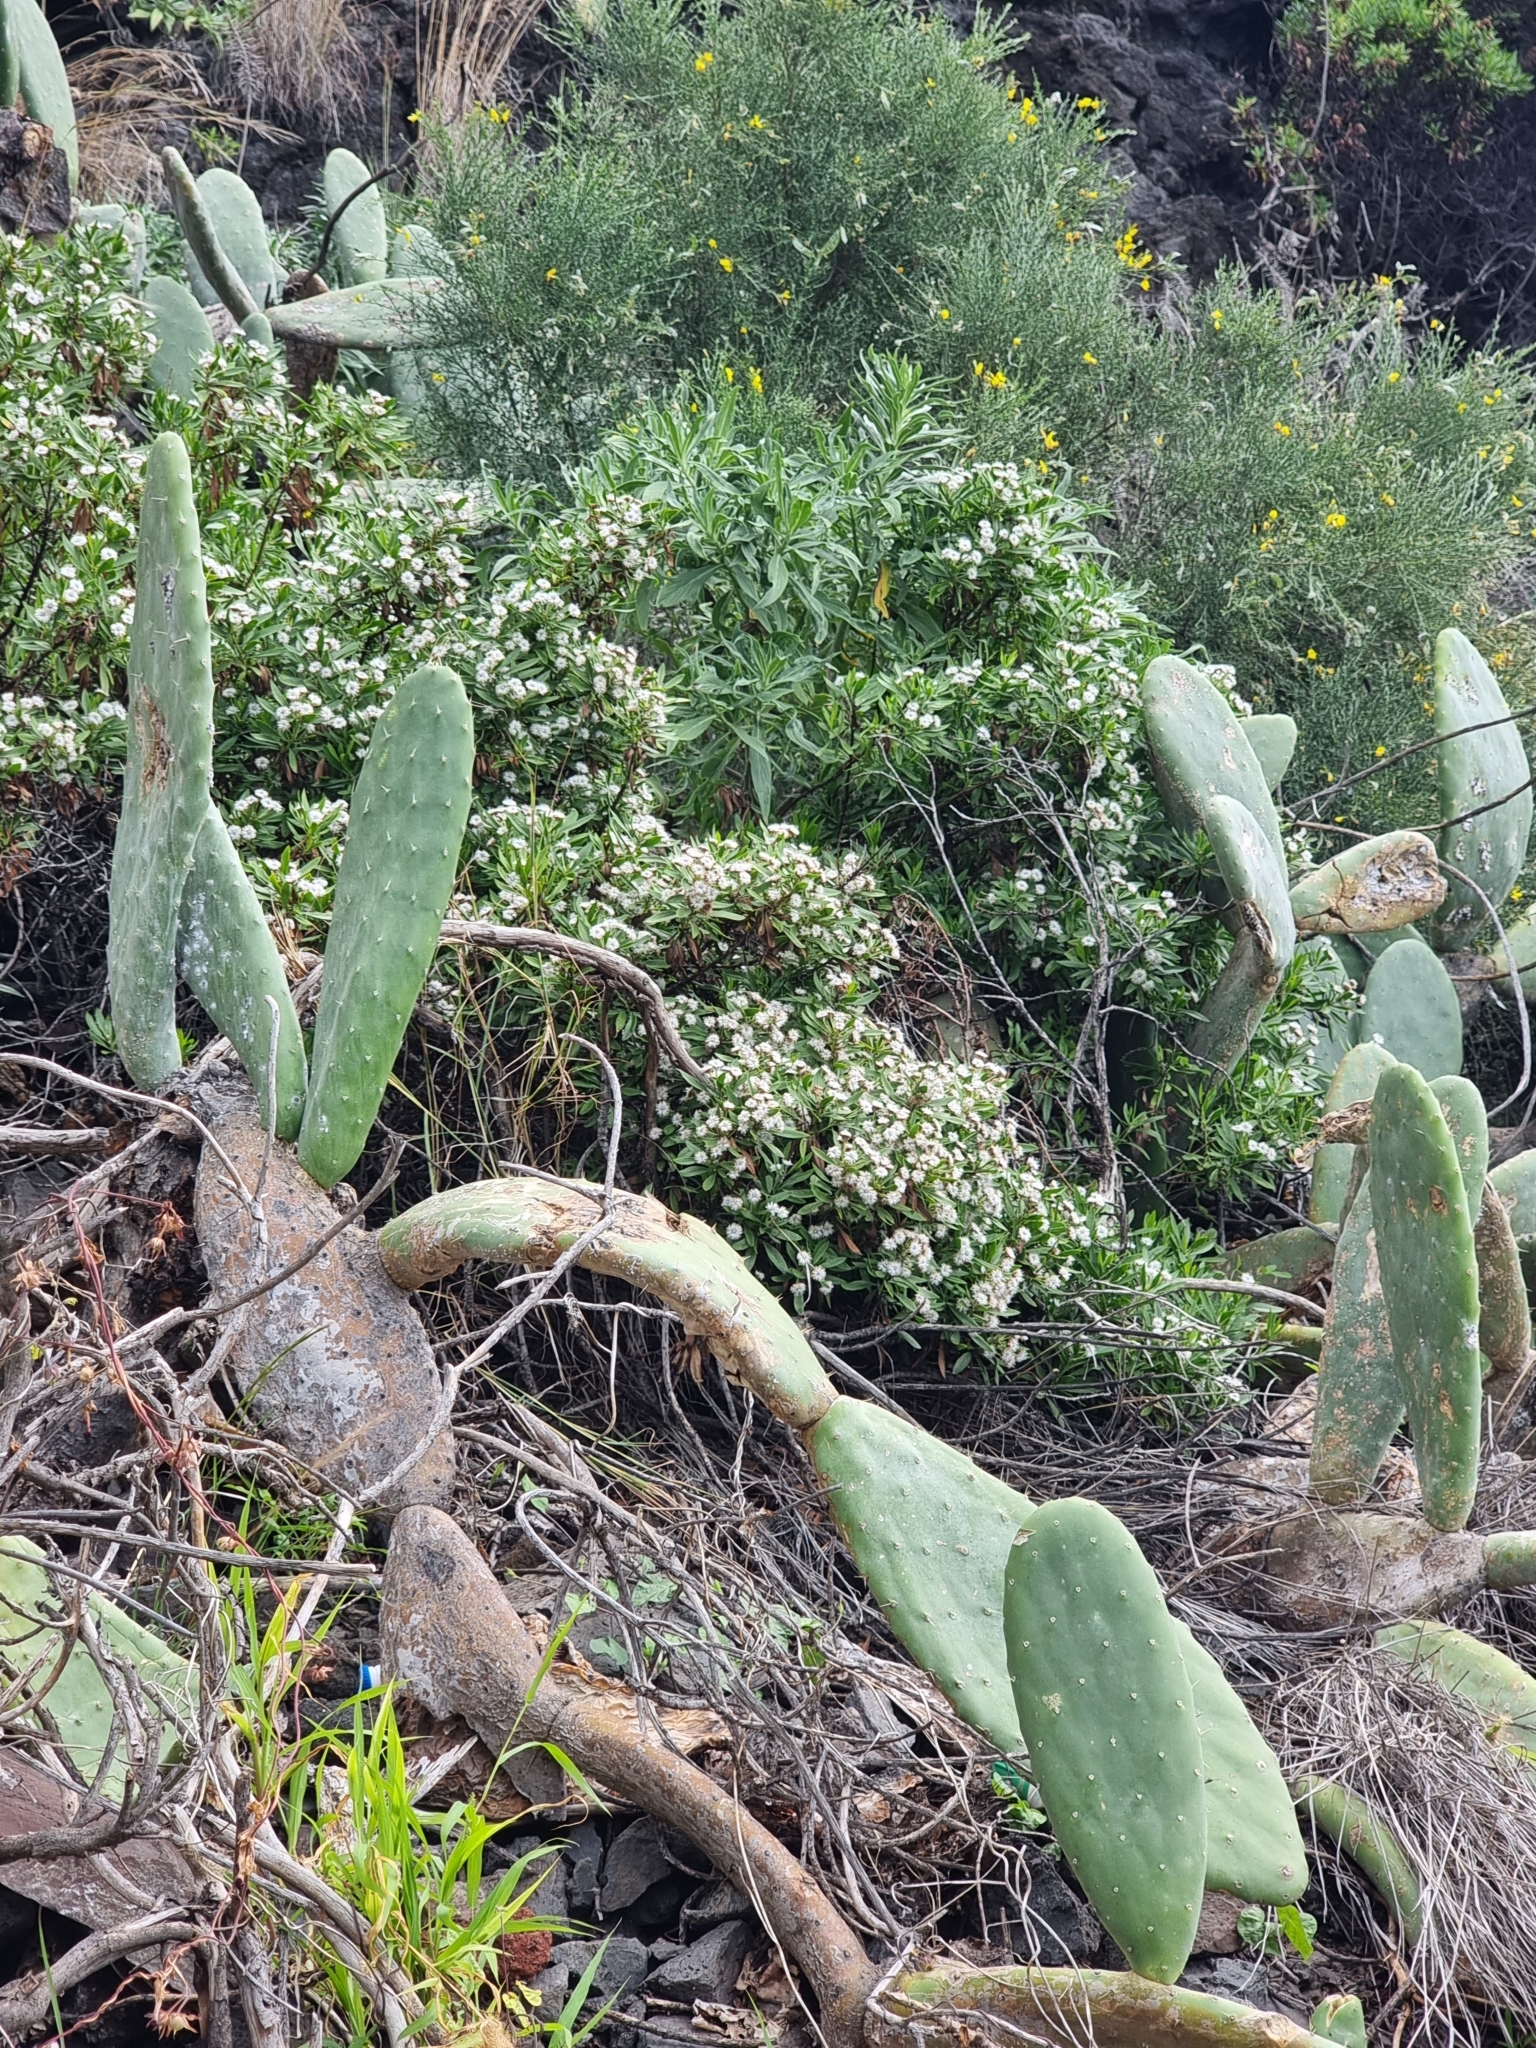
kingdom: Plantae
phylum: Tracheophyta
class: Magnoliopsida
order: Lamiales
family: Plantaginaceae
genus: Globularia
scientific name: Globularia salicina
